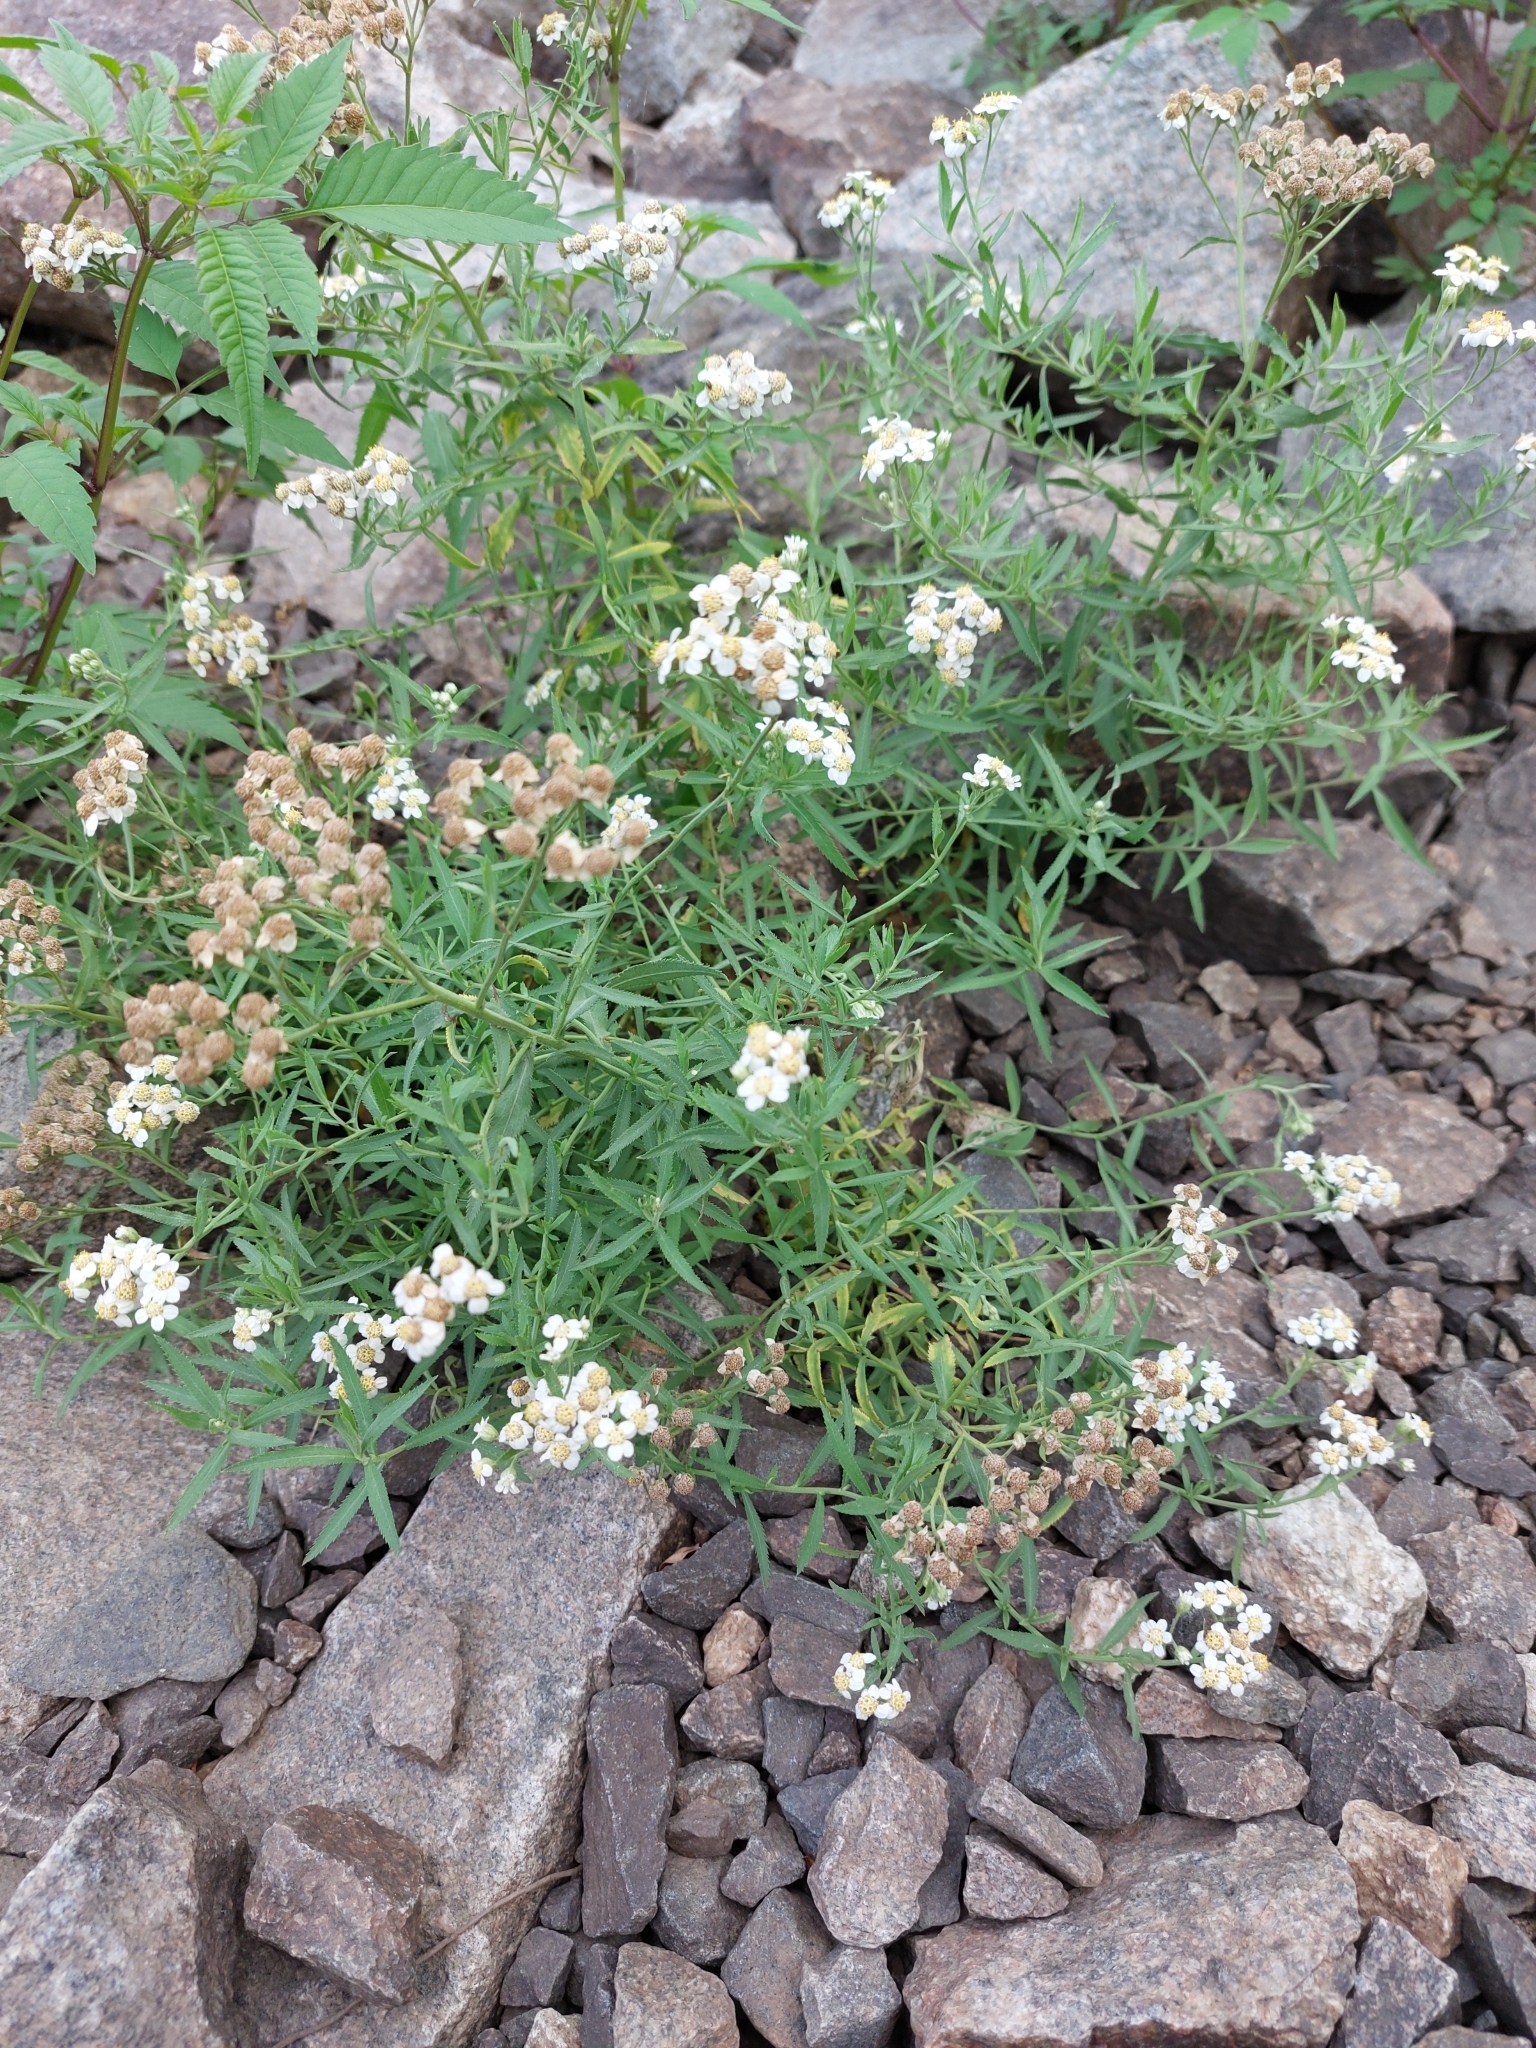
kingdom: Plantae
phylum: Tracheophyta
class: Magnoliopsida
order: Asterales
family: Asteraceae
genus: Achillea
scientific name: Achillea salicifolia
